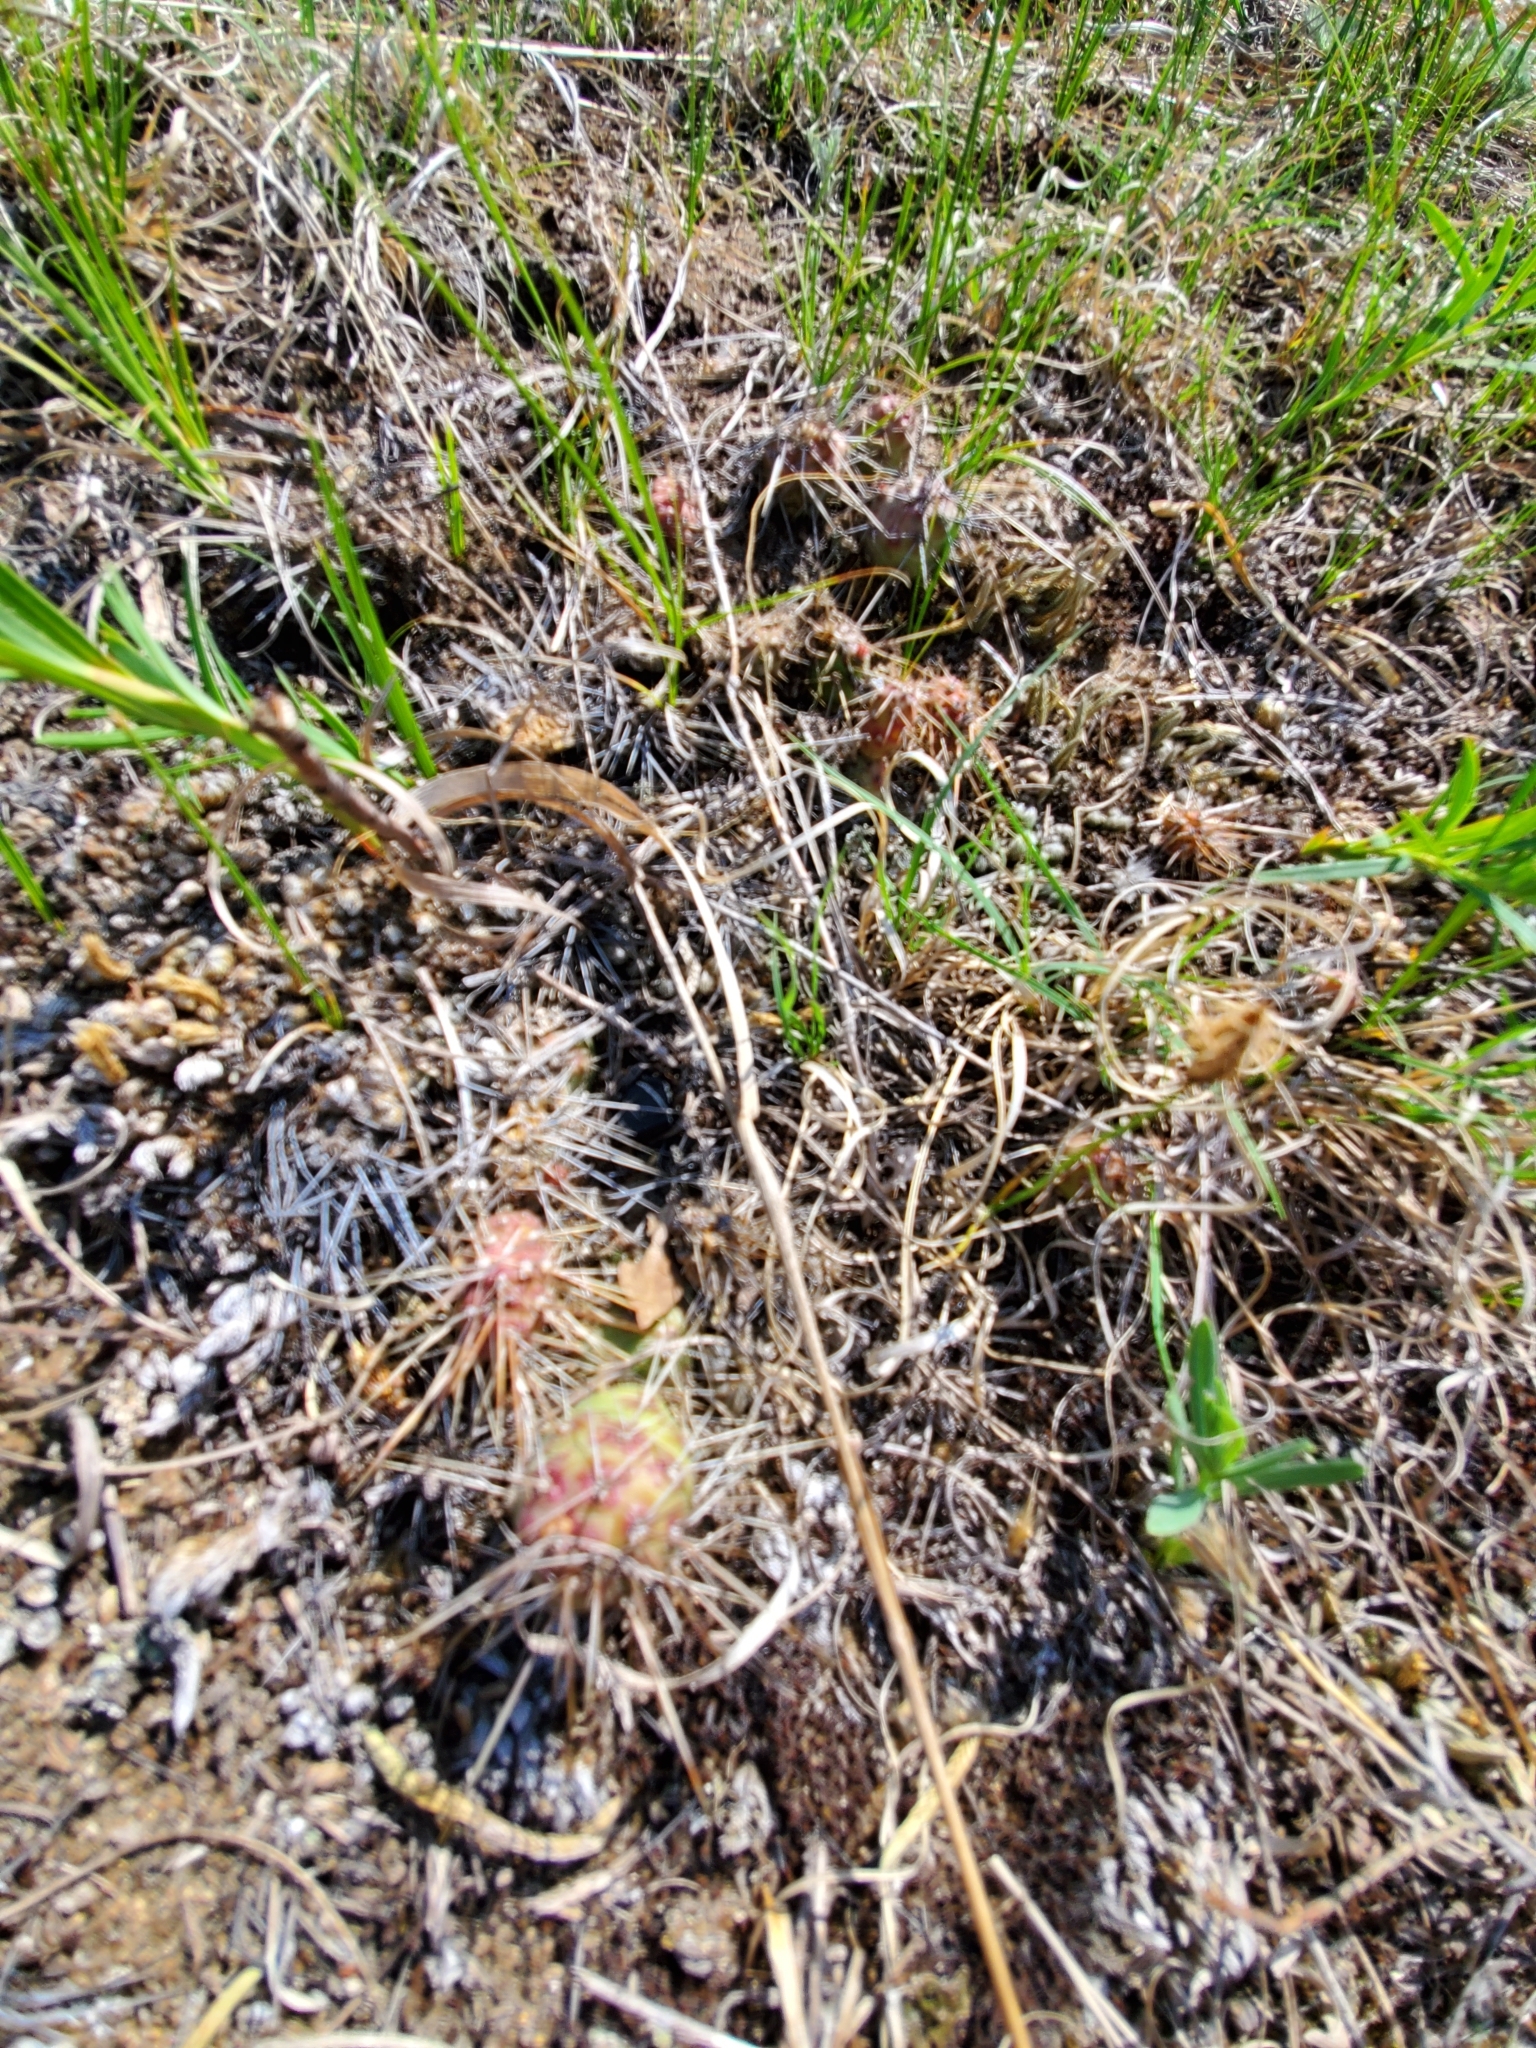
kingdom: Plantae
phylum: Tracheophyta
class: Magnoliopsida
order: Caryophyllales
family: Cactaceae
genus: Opuntia
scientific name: Opuntia fragilis
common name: Brittle cactus
